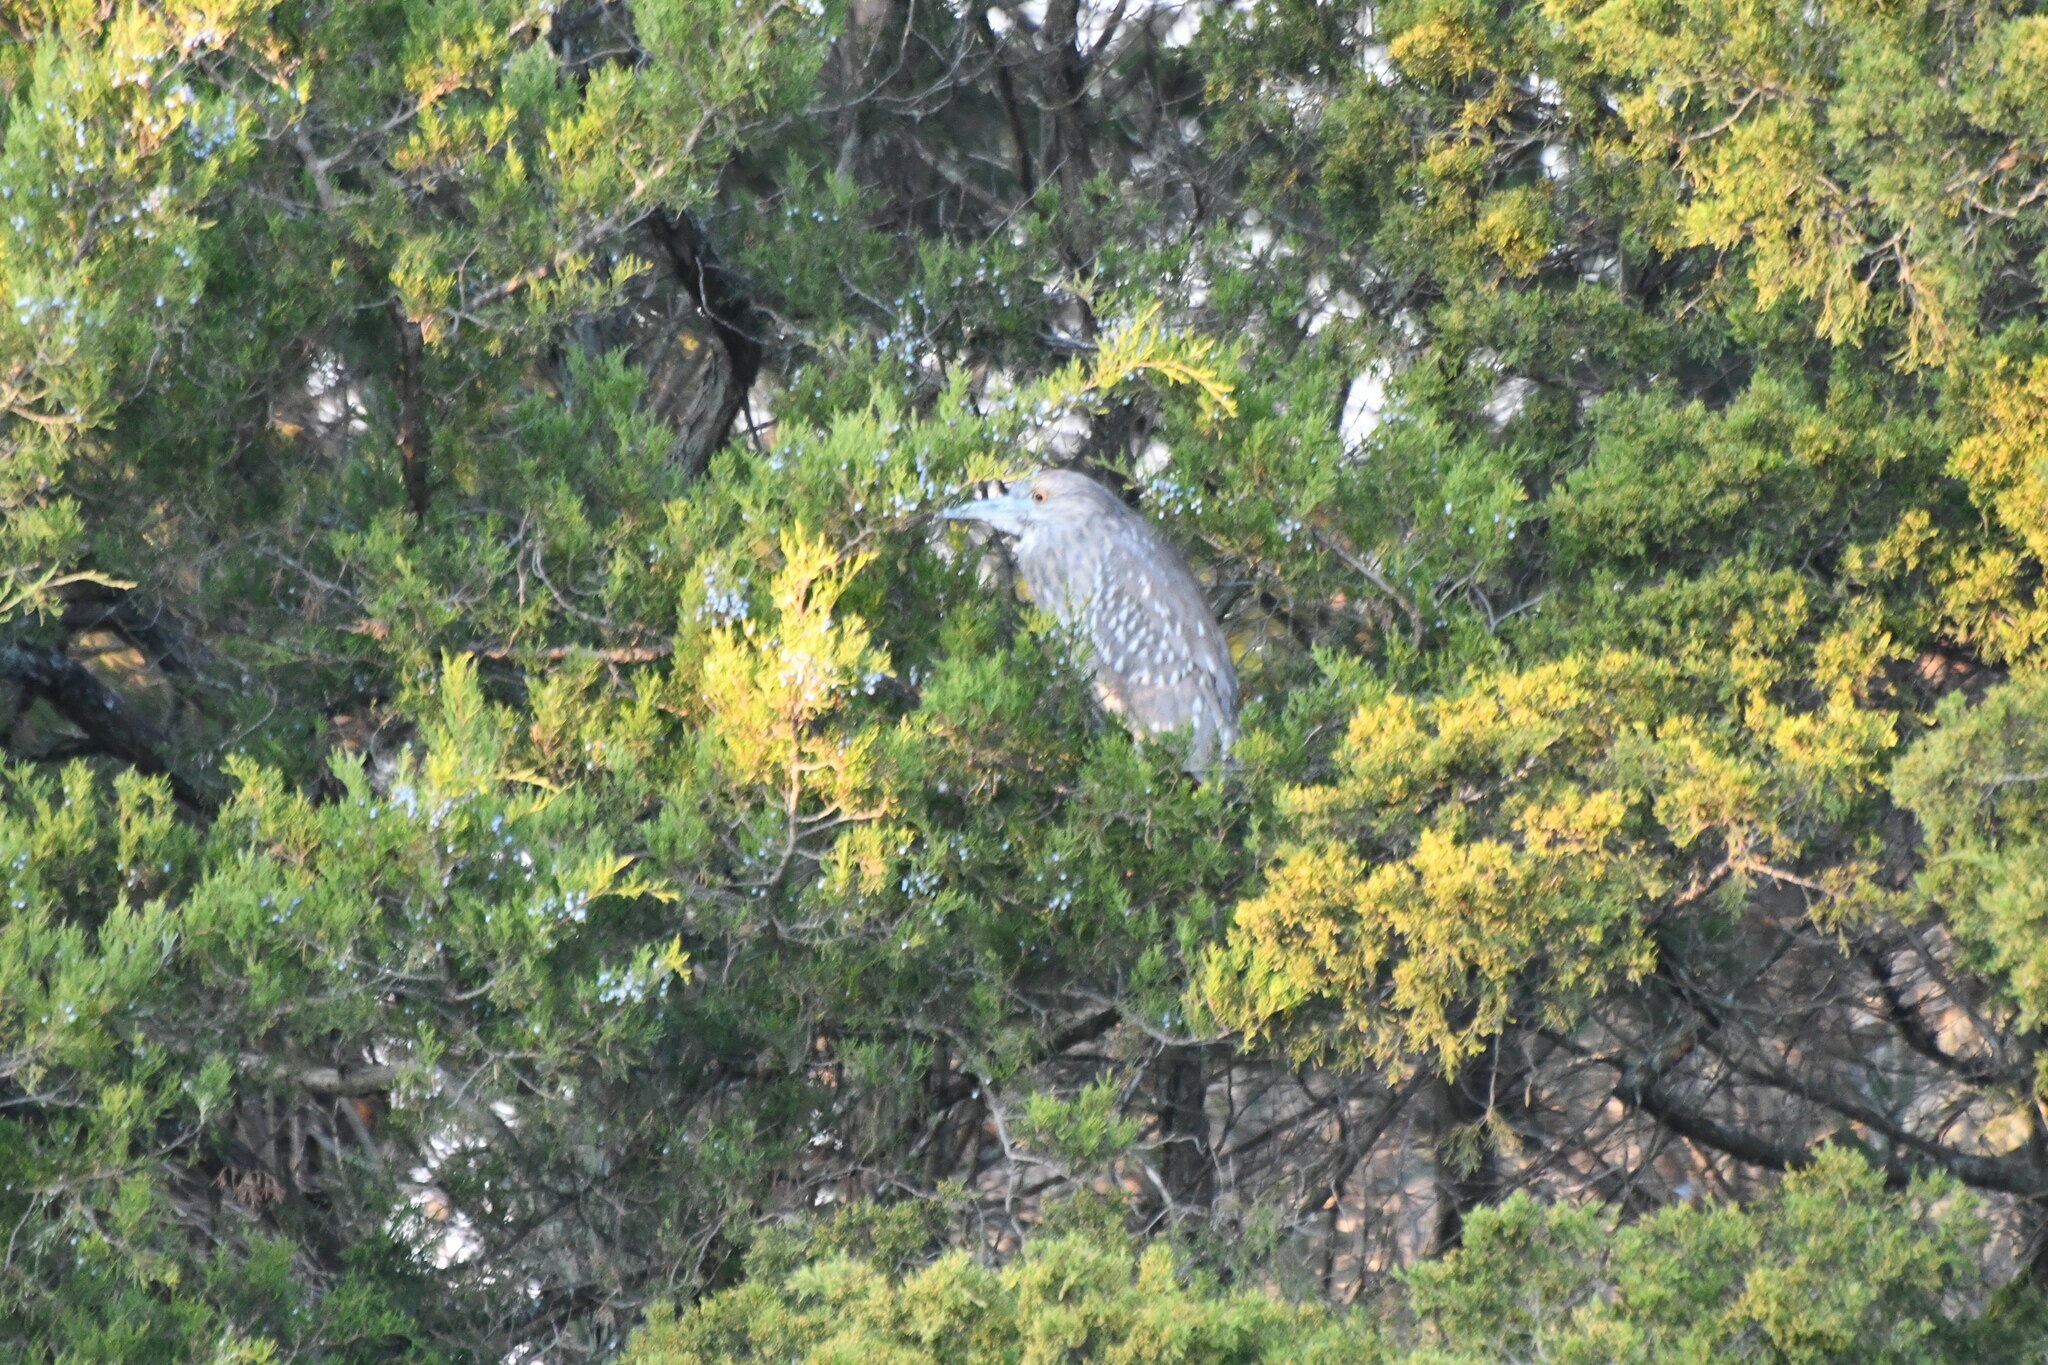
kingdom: Animalia
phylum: Chordata
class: Aves
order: Pelecaniformes
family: Ardeidae
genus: Nycticorax
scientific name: Nycticorax nycticorax
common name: Black-crowned night heron
